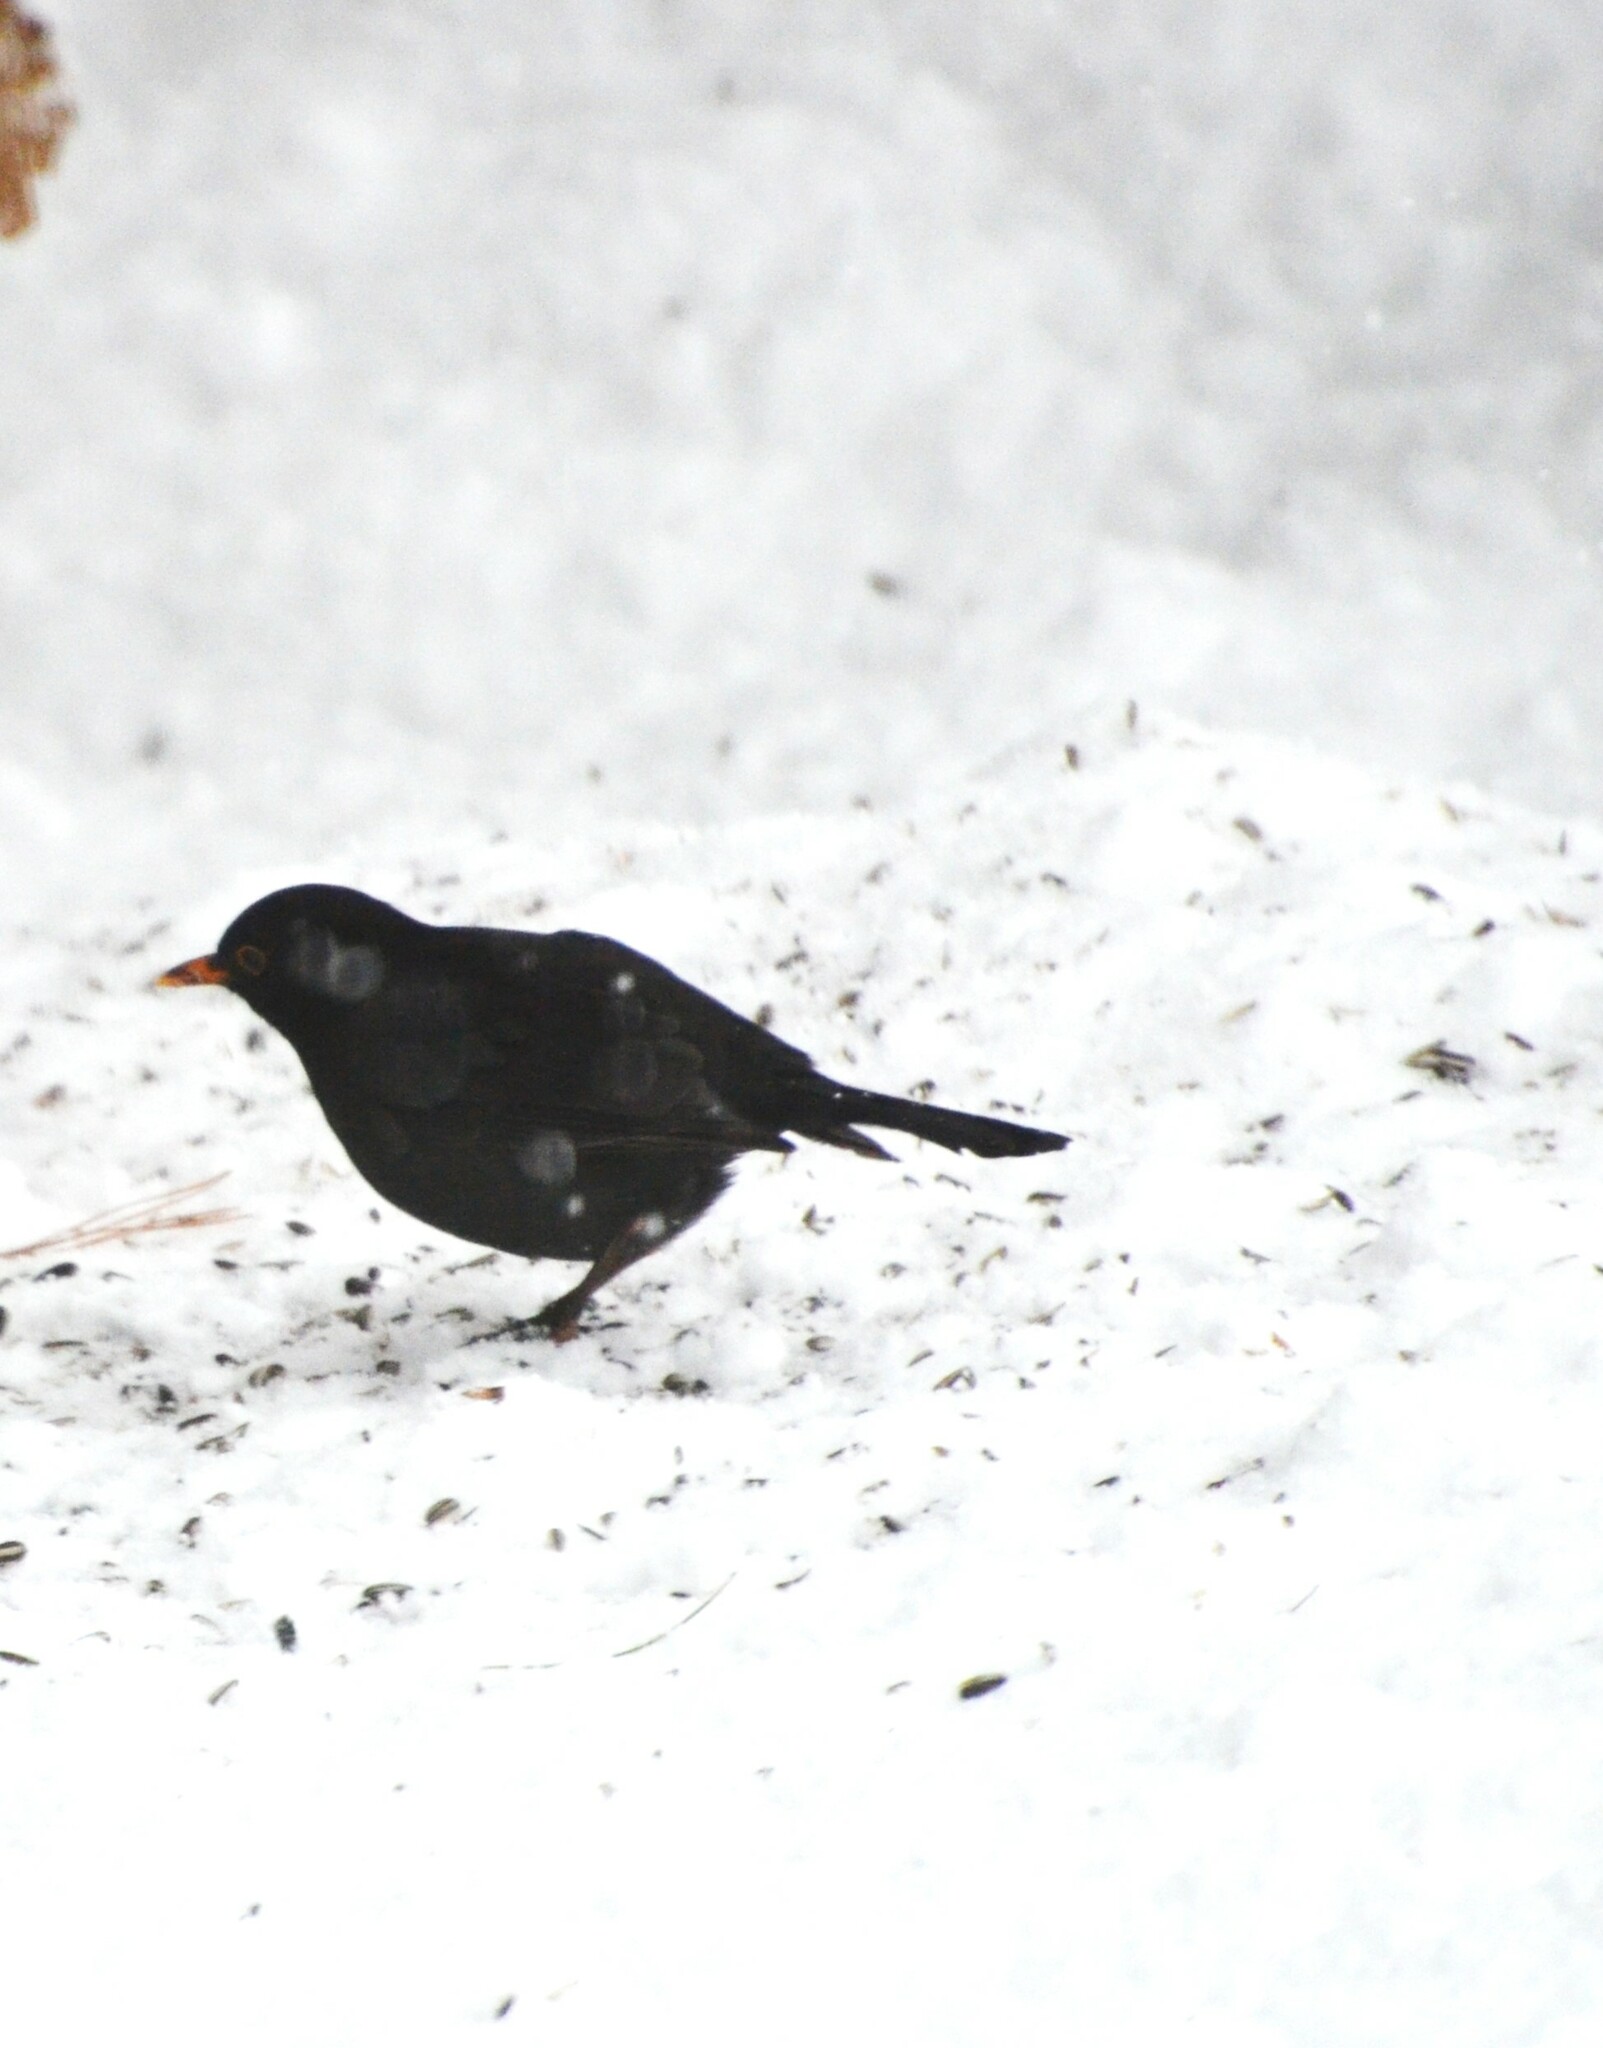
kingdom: Animalia
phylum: Chordata
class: Aves
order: Passeriformes
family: Turdidae
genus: Turdus
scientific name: Turdus merula
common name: Common blackbird
